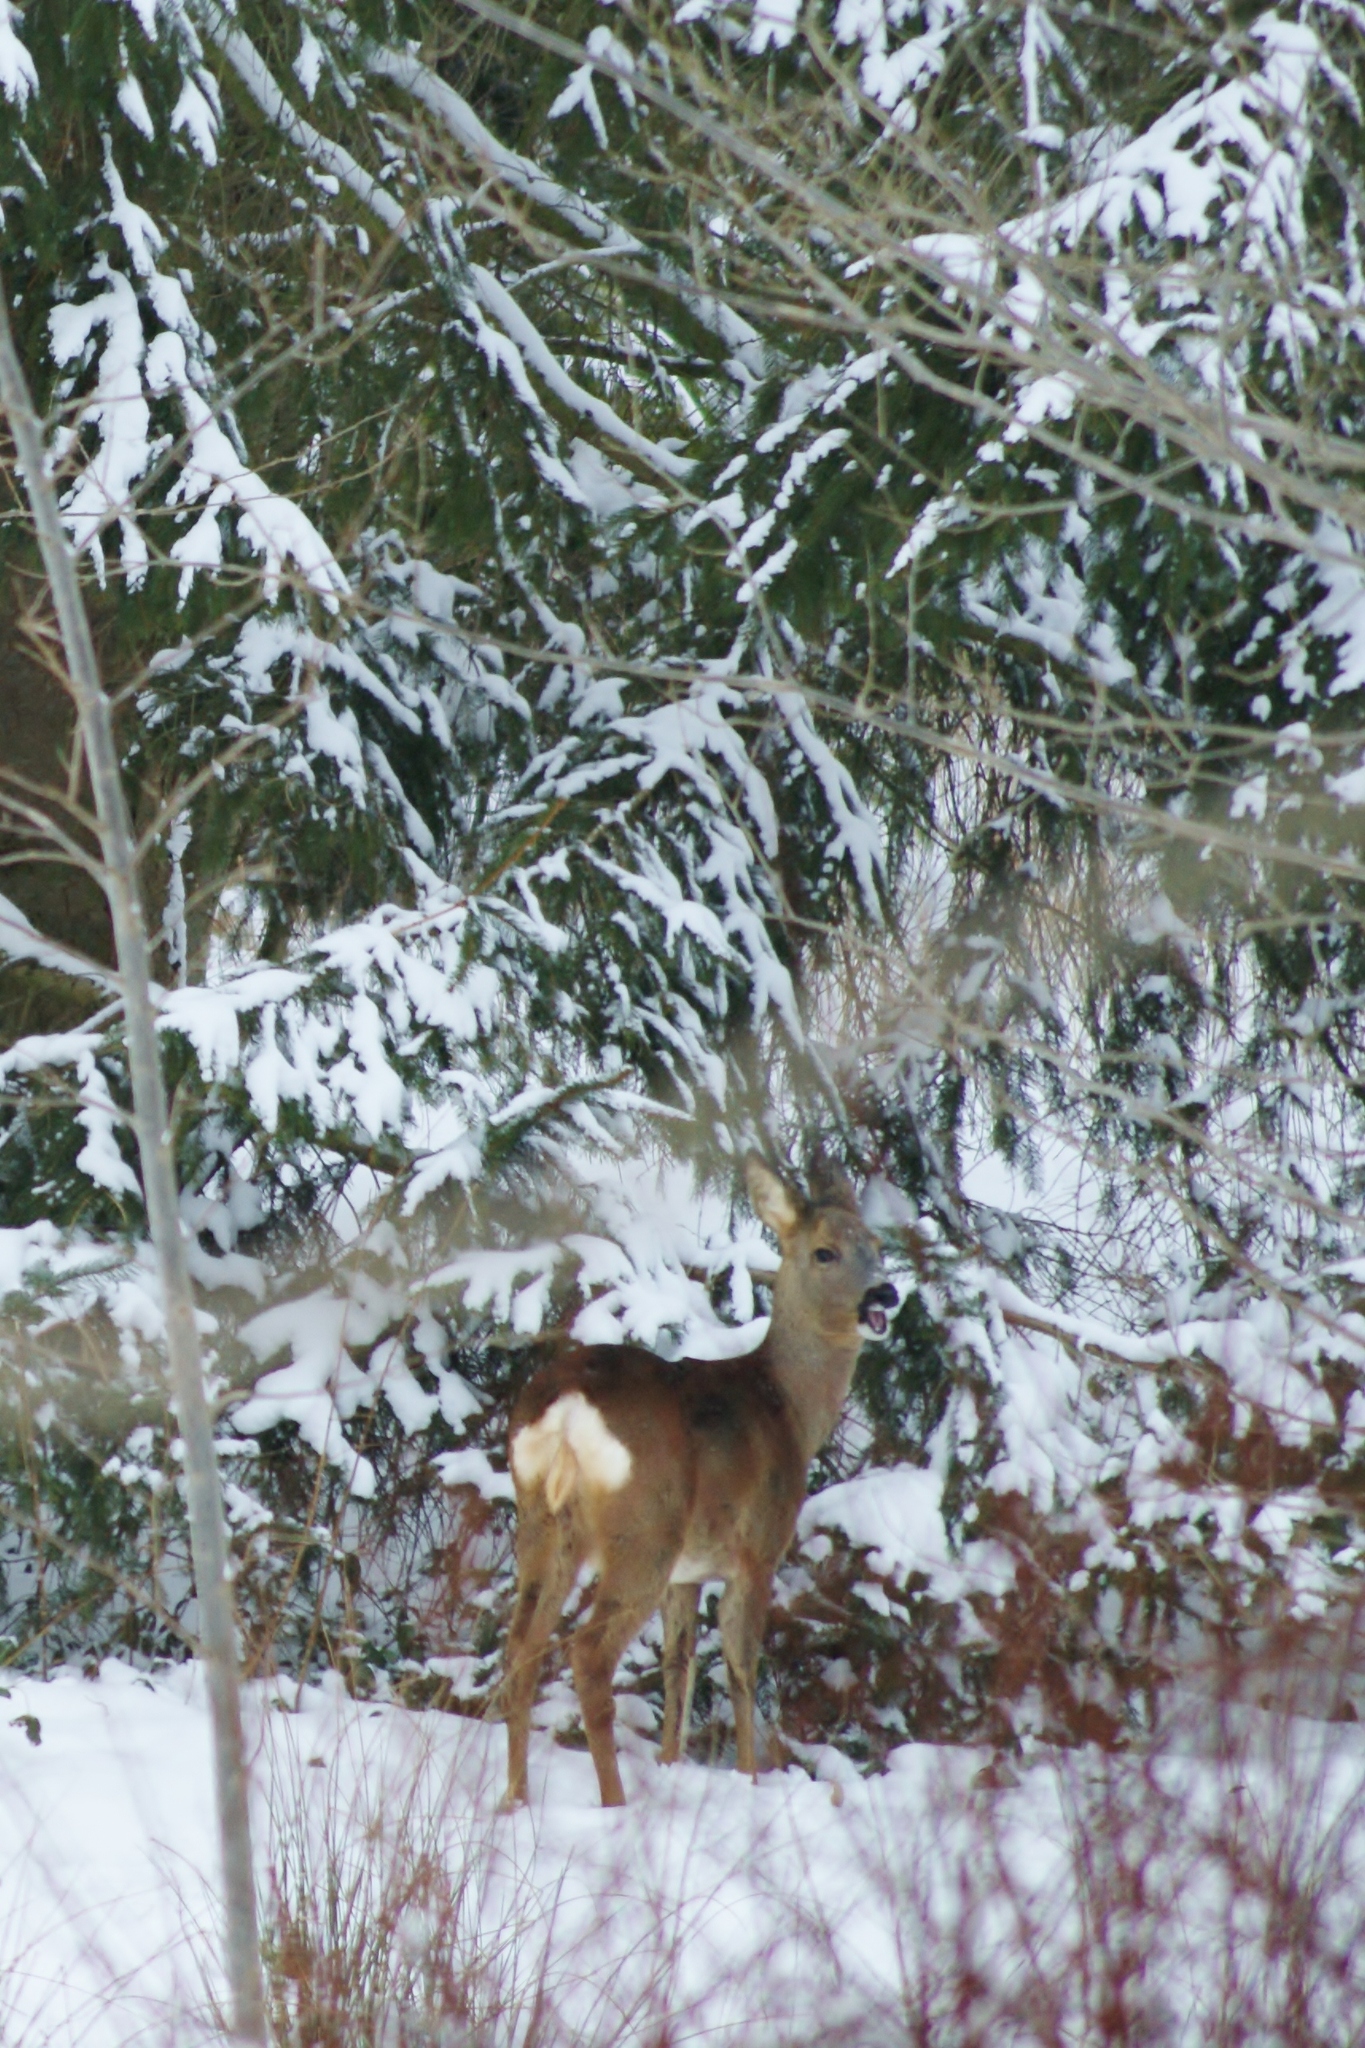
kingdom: Animalia
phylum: Chordata
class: Mammalia
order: Artiodactyla
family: Cervidae
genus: Capreolus
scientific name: Capreolus capreolus
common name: Western roe deer
